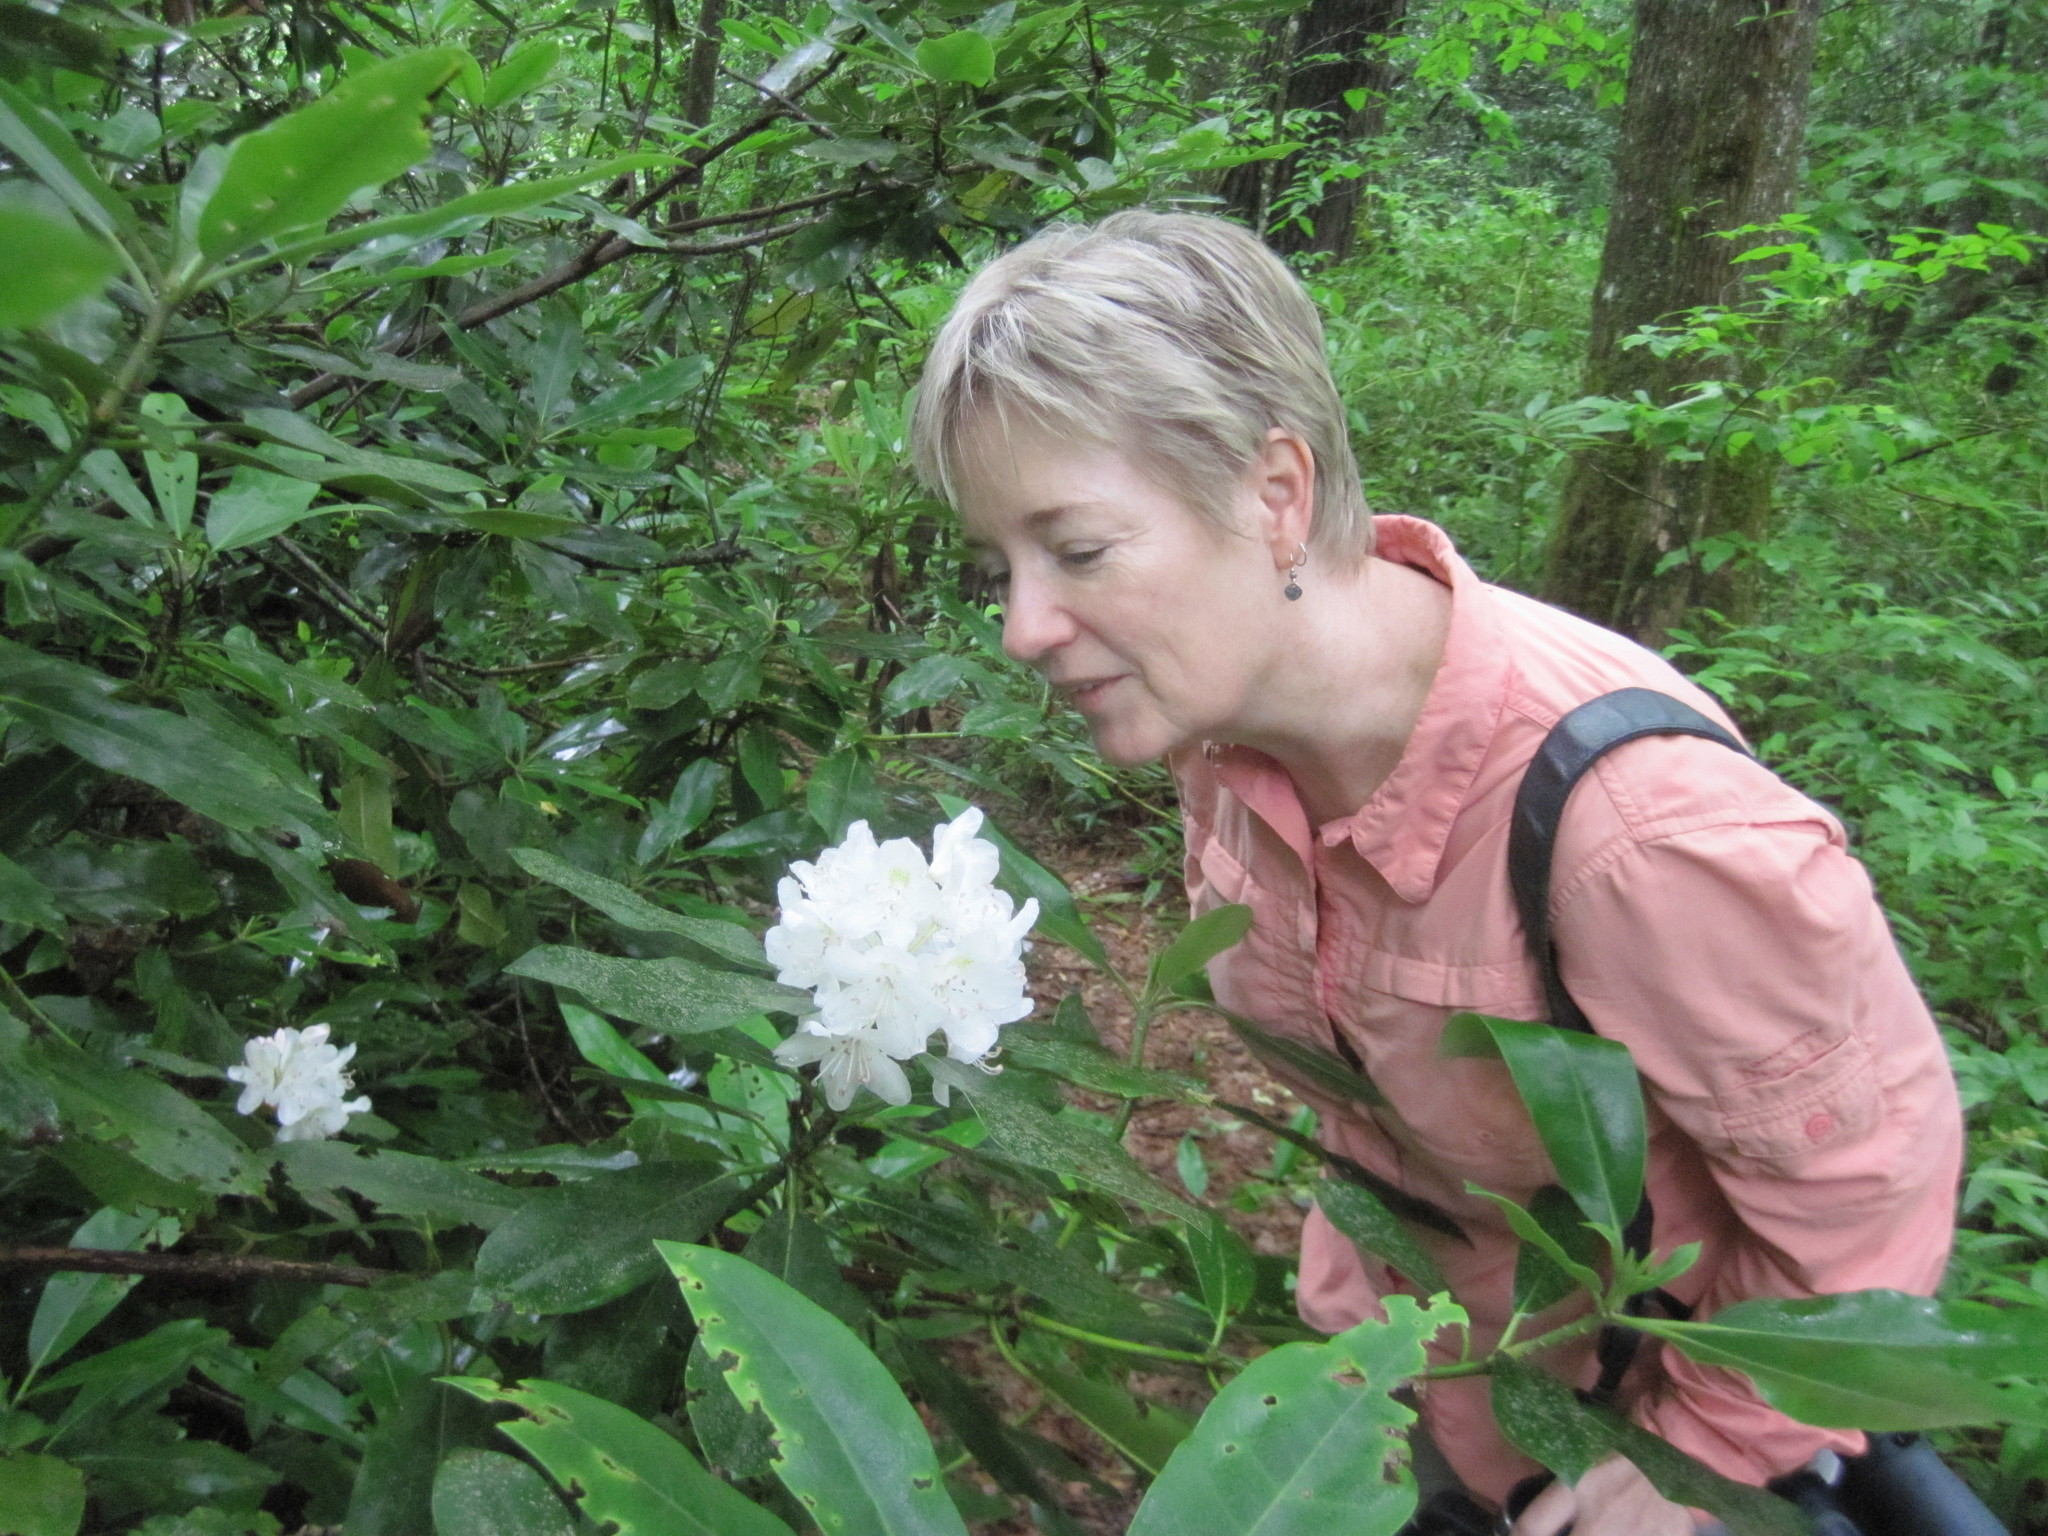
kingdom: Plantae
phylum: Tracheophyta
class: Magnoliopsida
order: Ericales
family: Ericaceae
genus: Rhododendron
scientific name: Rhododendron maximum
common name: Great rhododendron
